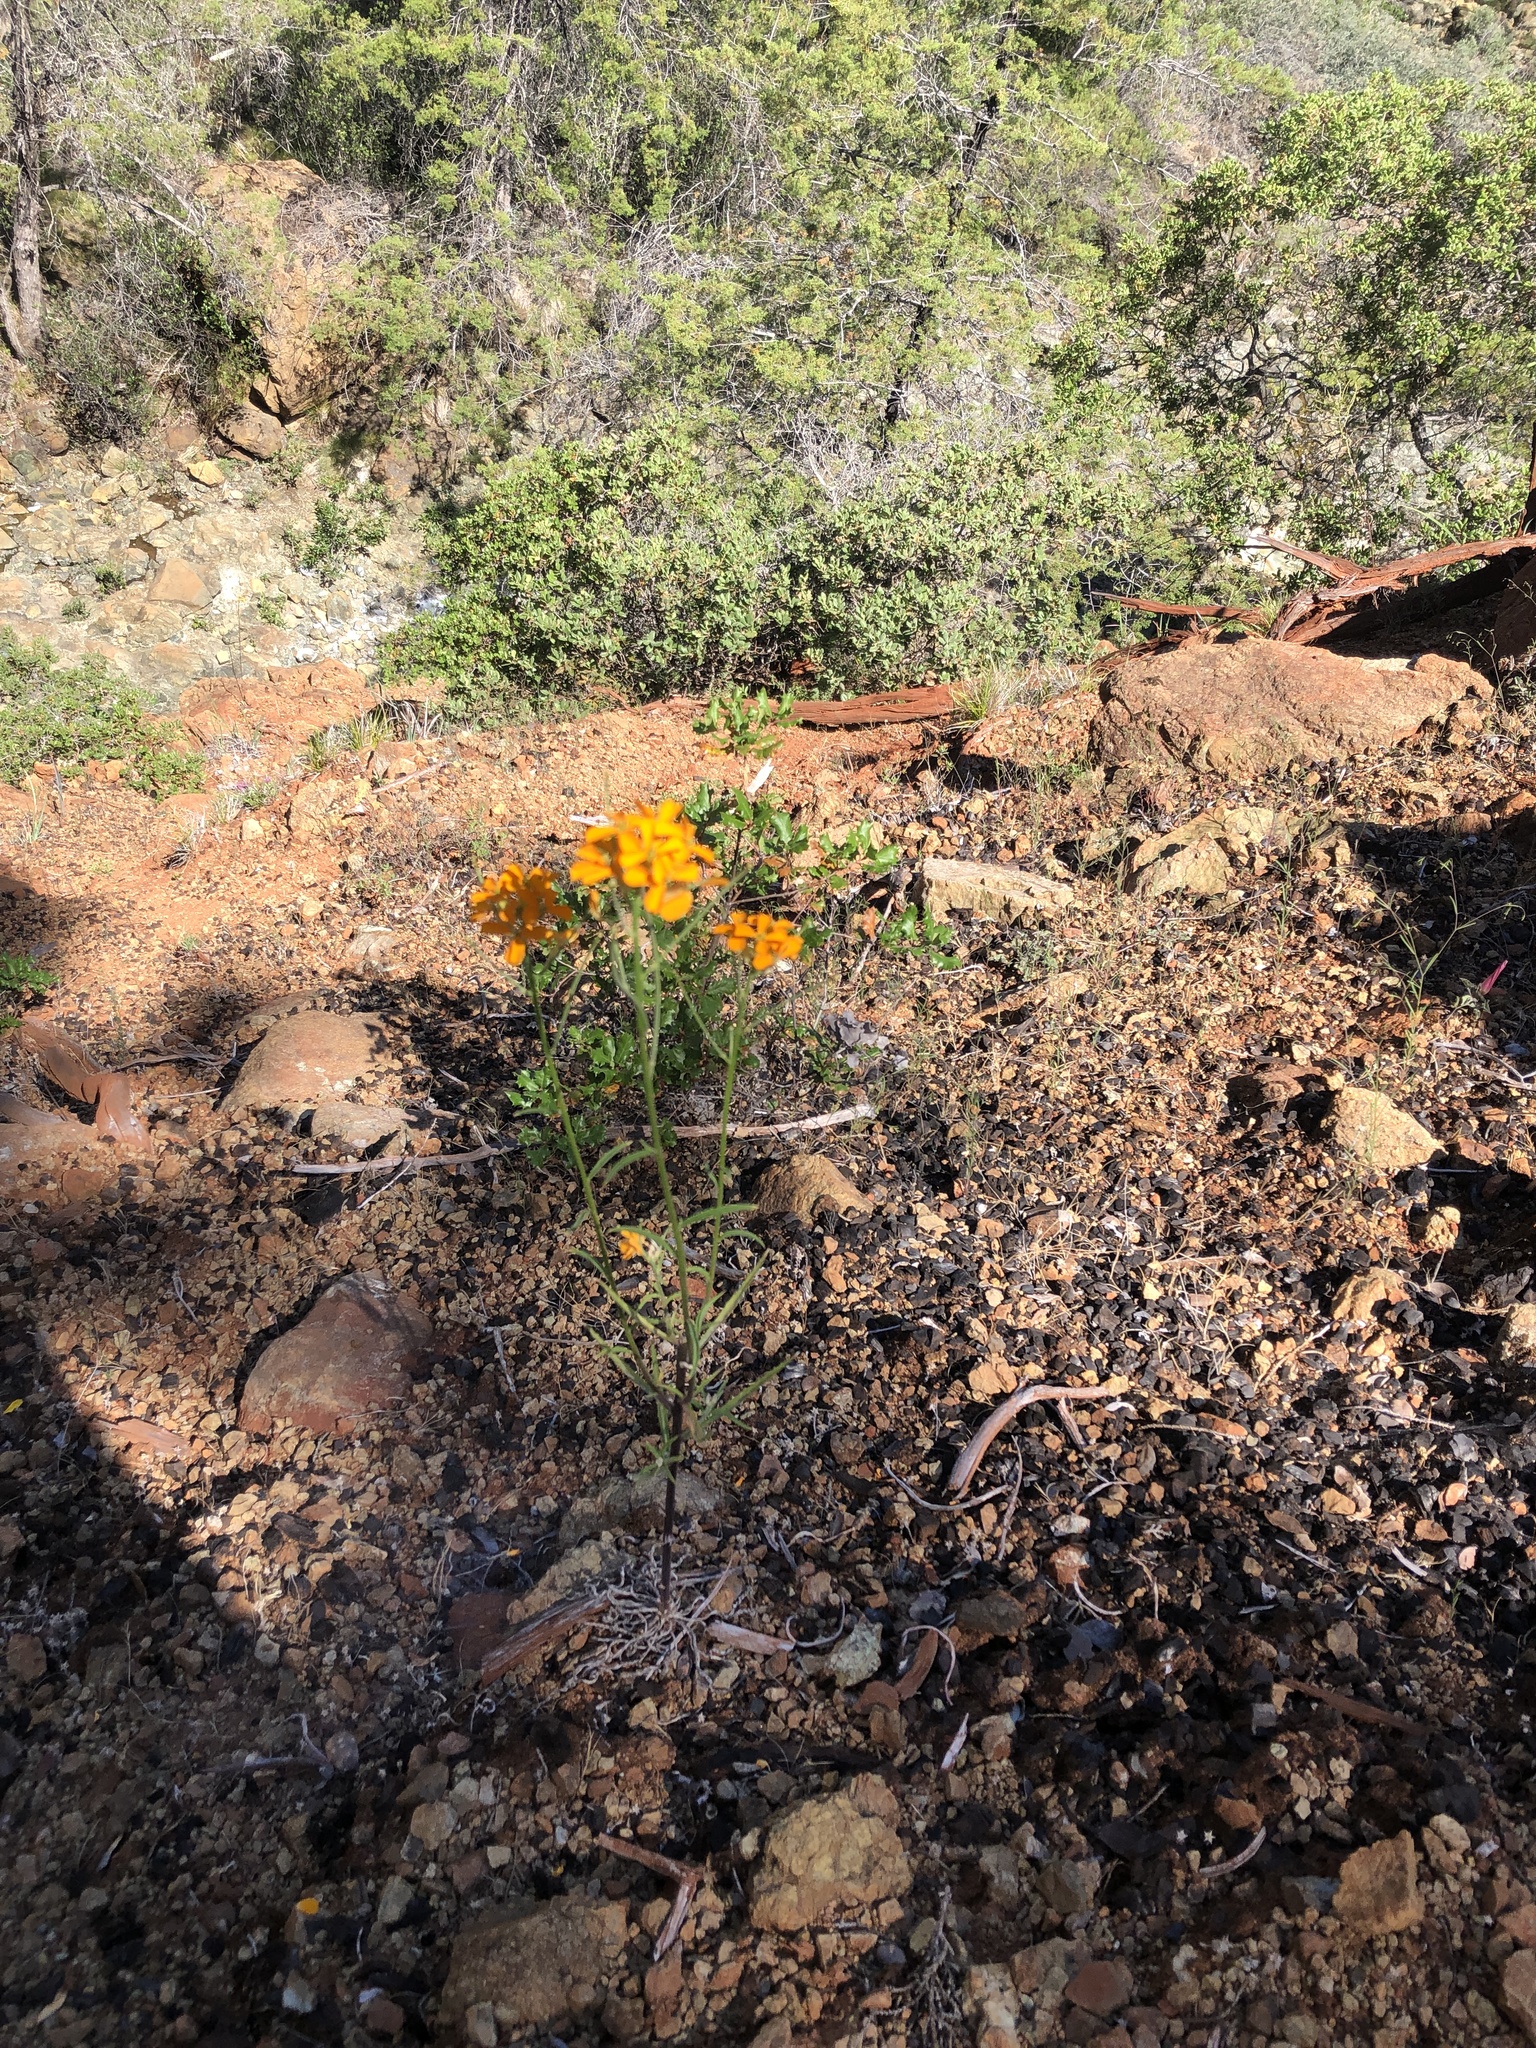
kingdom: Plantae
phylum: Tracheophyta
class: Magnoliopsida
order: Brassicales
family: Brassicaceae
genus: Erysimum
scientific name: Erysimum capitatum
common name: Western wallflower
